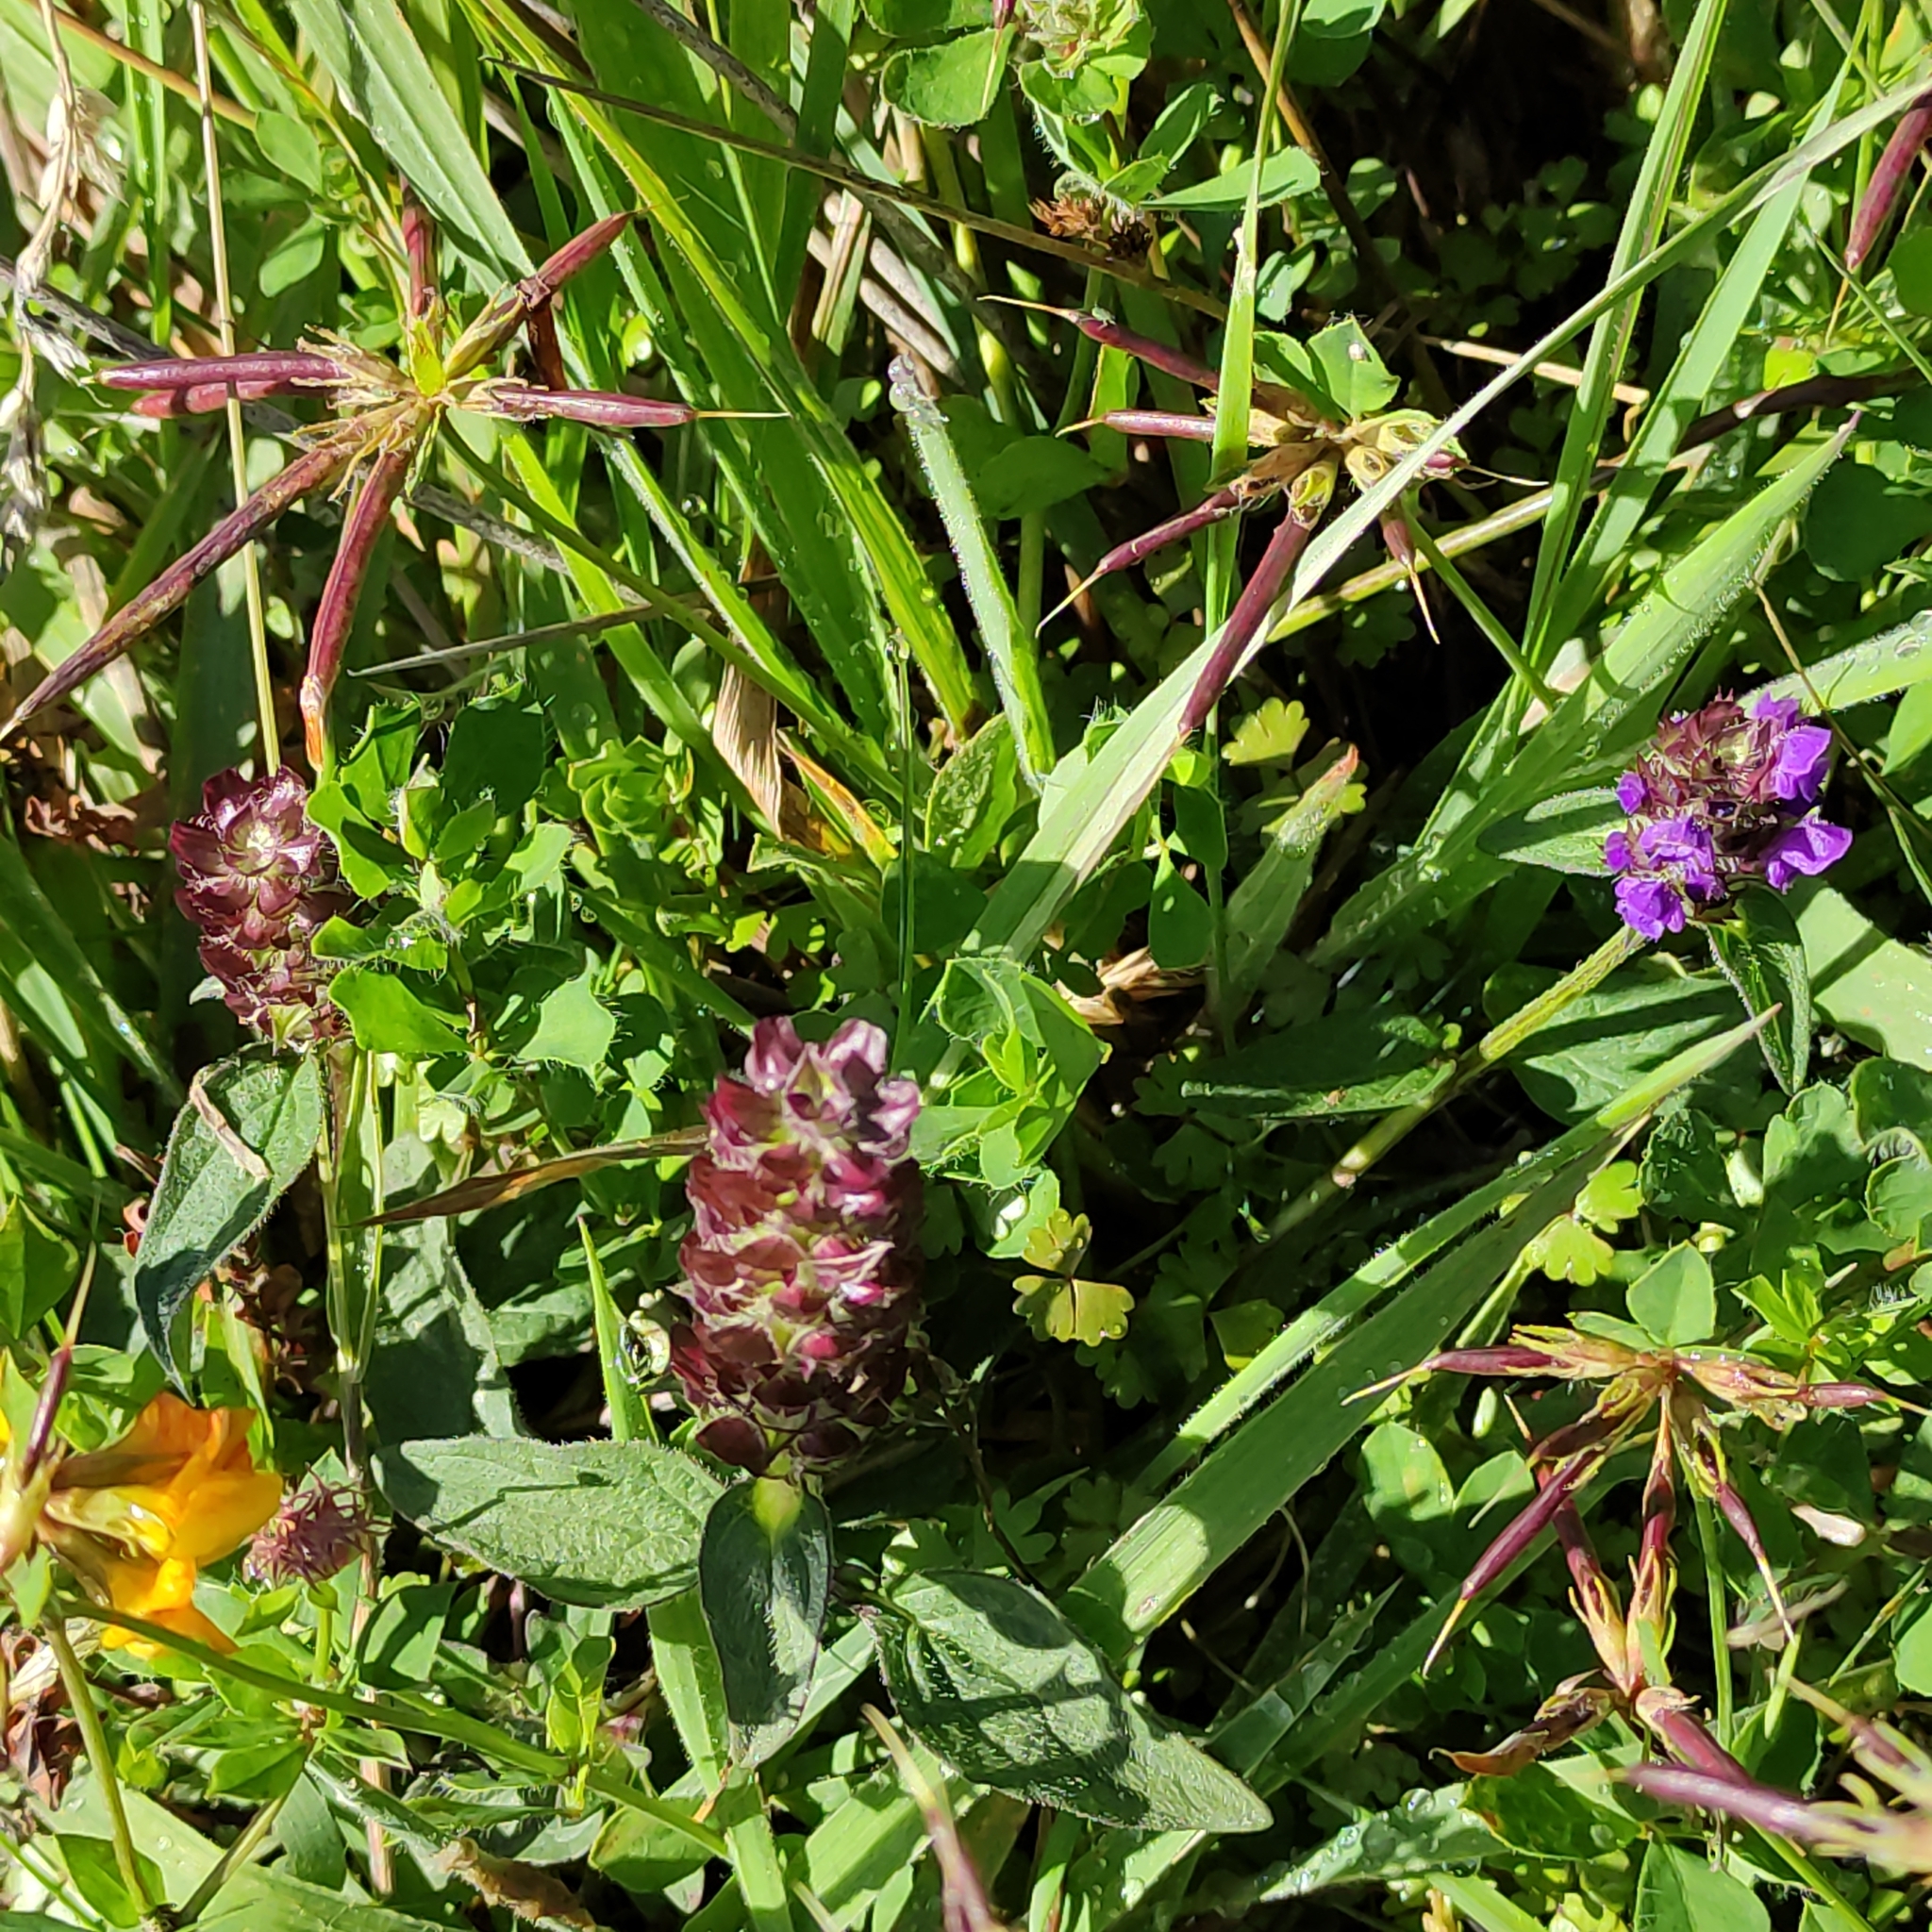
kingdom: Plantae
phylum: Tracheophyta
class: Magnoliopsida
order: Lamiales
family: Lamiaceae
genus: Prunella
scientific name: Prunella vulgaris
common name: Heal-all
